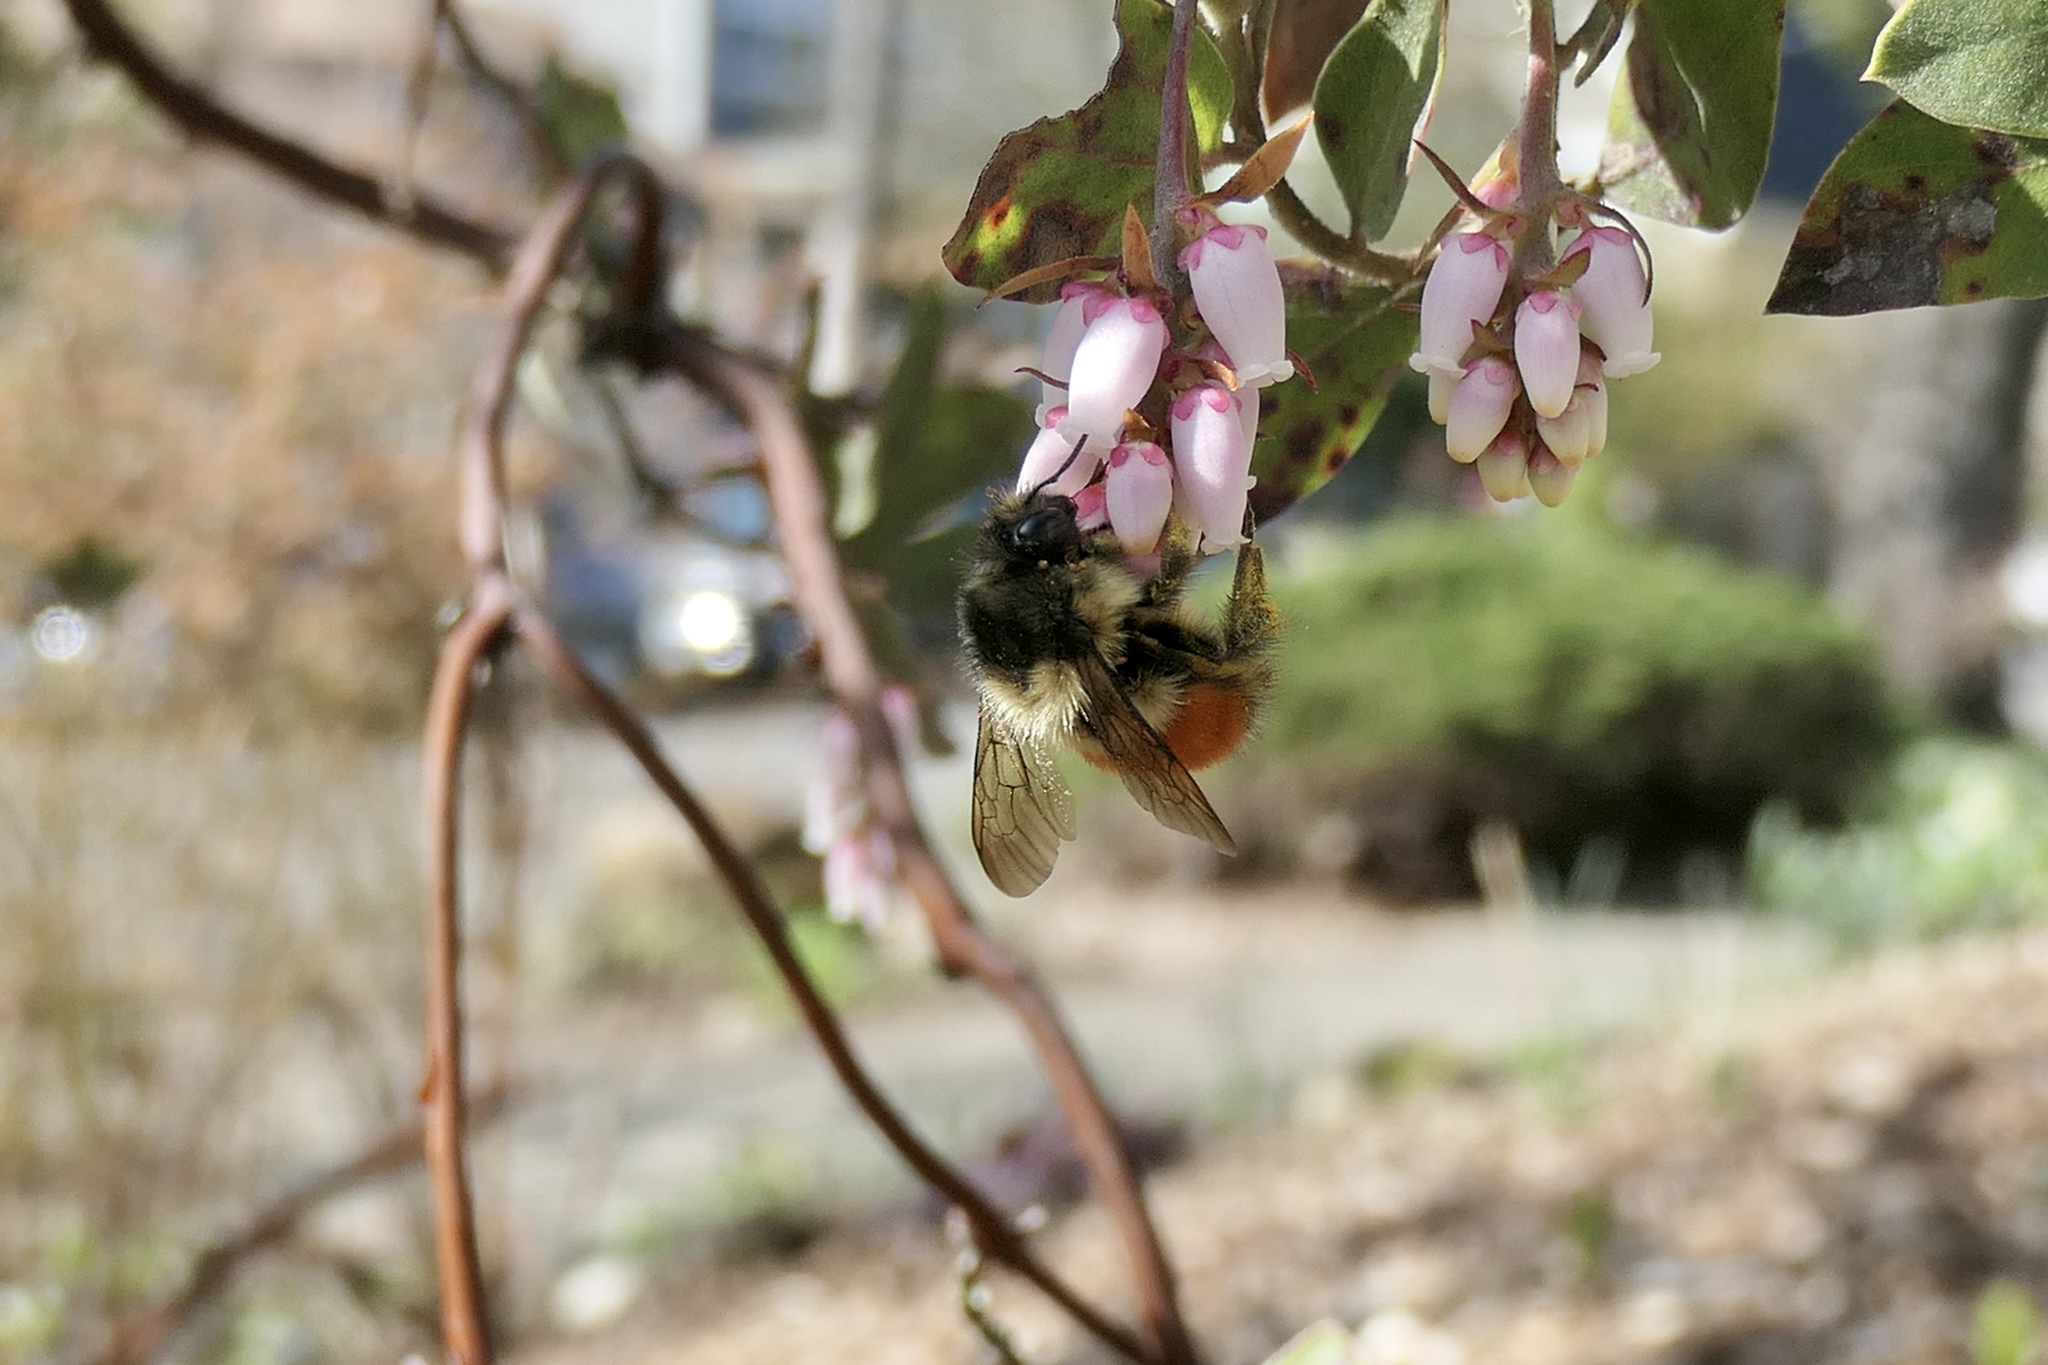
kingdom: Animalia
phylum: Arthropoda
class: Insecta
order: Hymenoptera
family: Apidae
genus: Bombus
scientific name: Bombus melanopygus
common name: Black tail bumble bee
